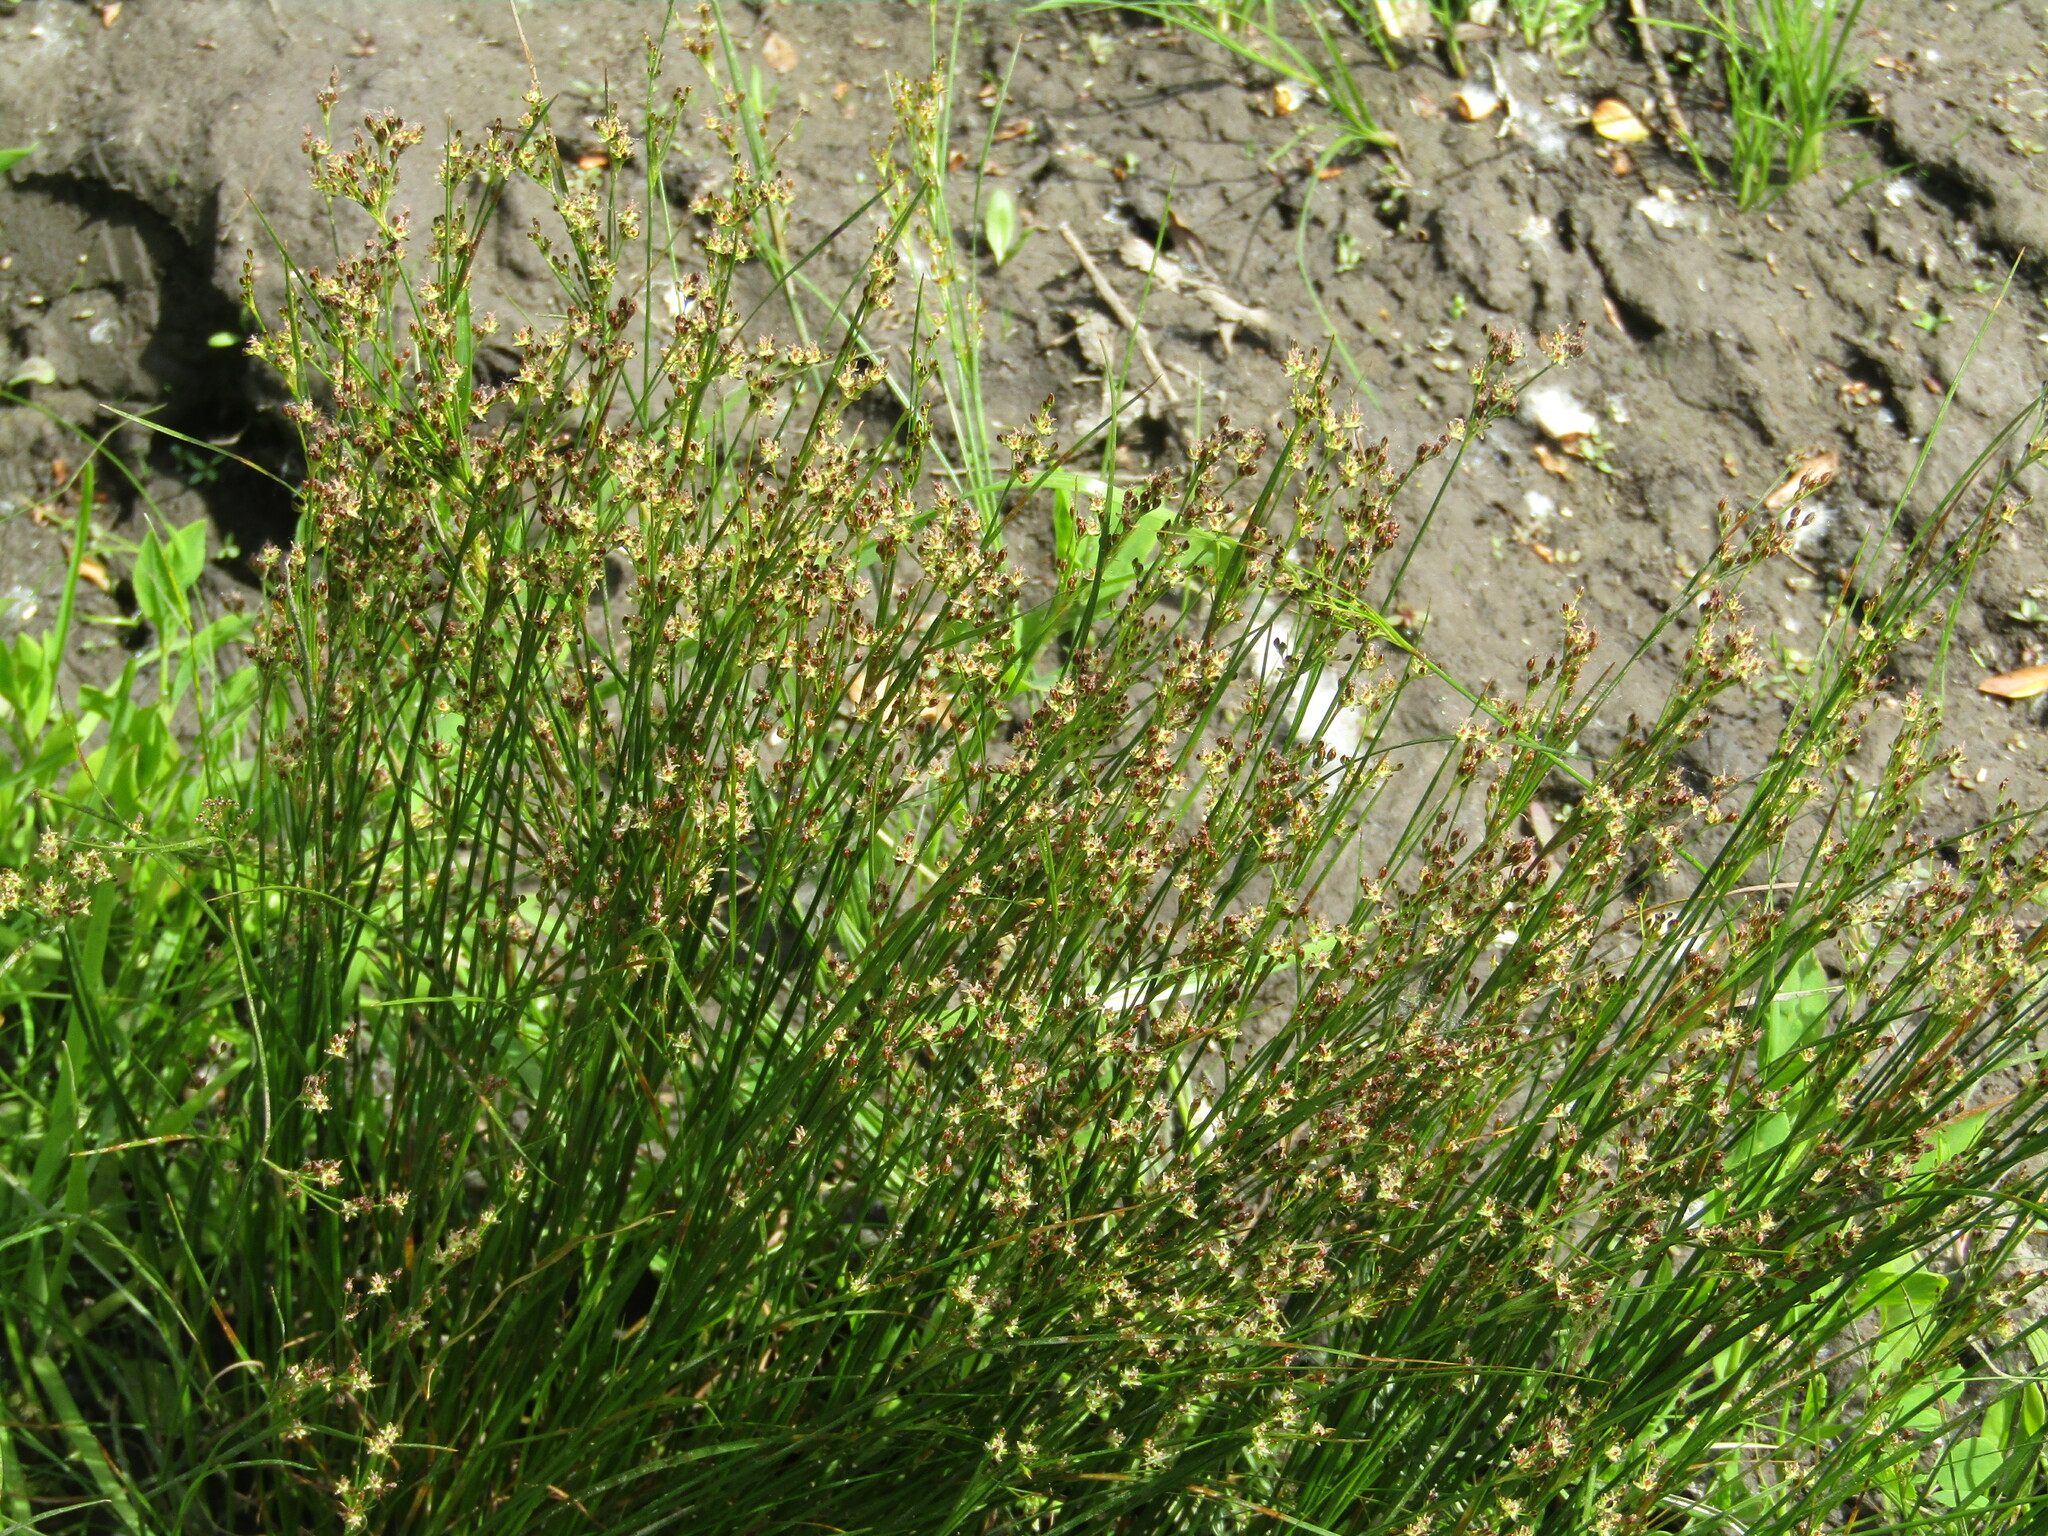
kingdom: Plantae
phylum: Tracheophyta
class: Liliopsida
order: Poales
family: Juncaceae
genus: Juncus
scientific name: Juncus compressus
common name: Round-fruited rush
